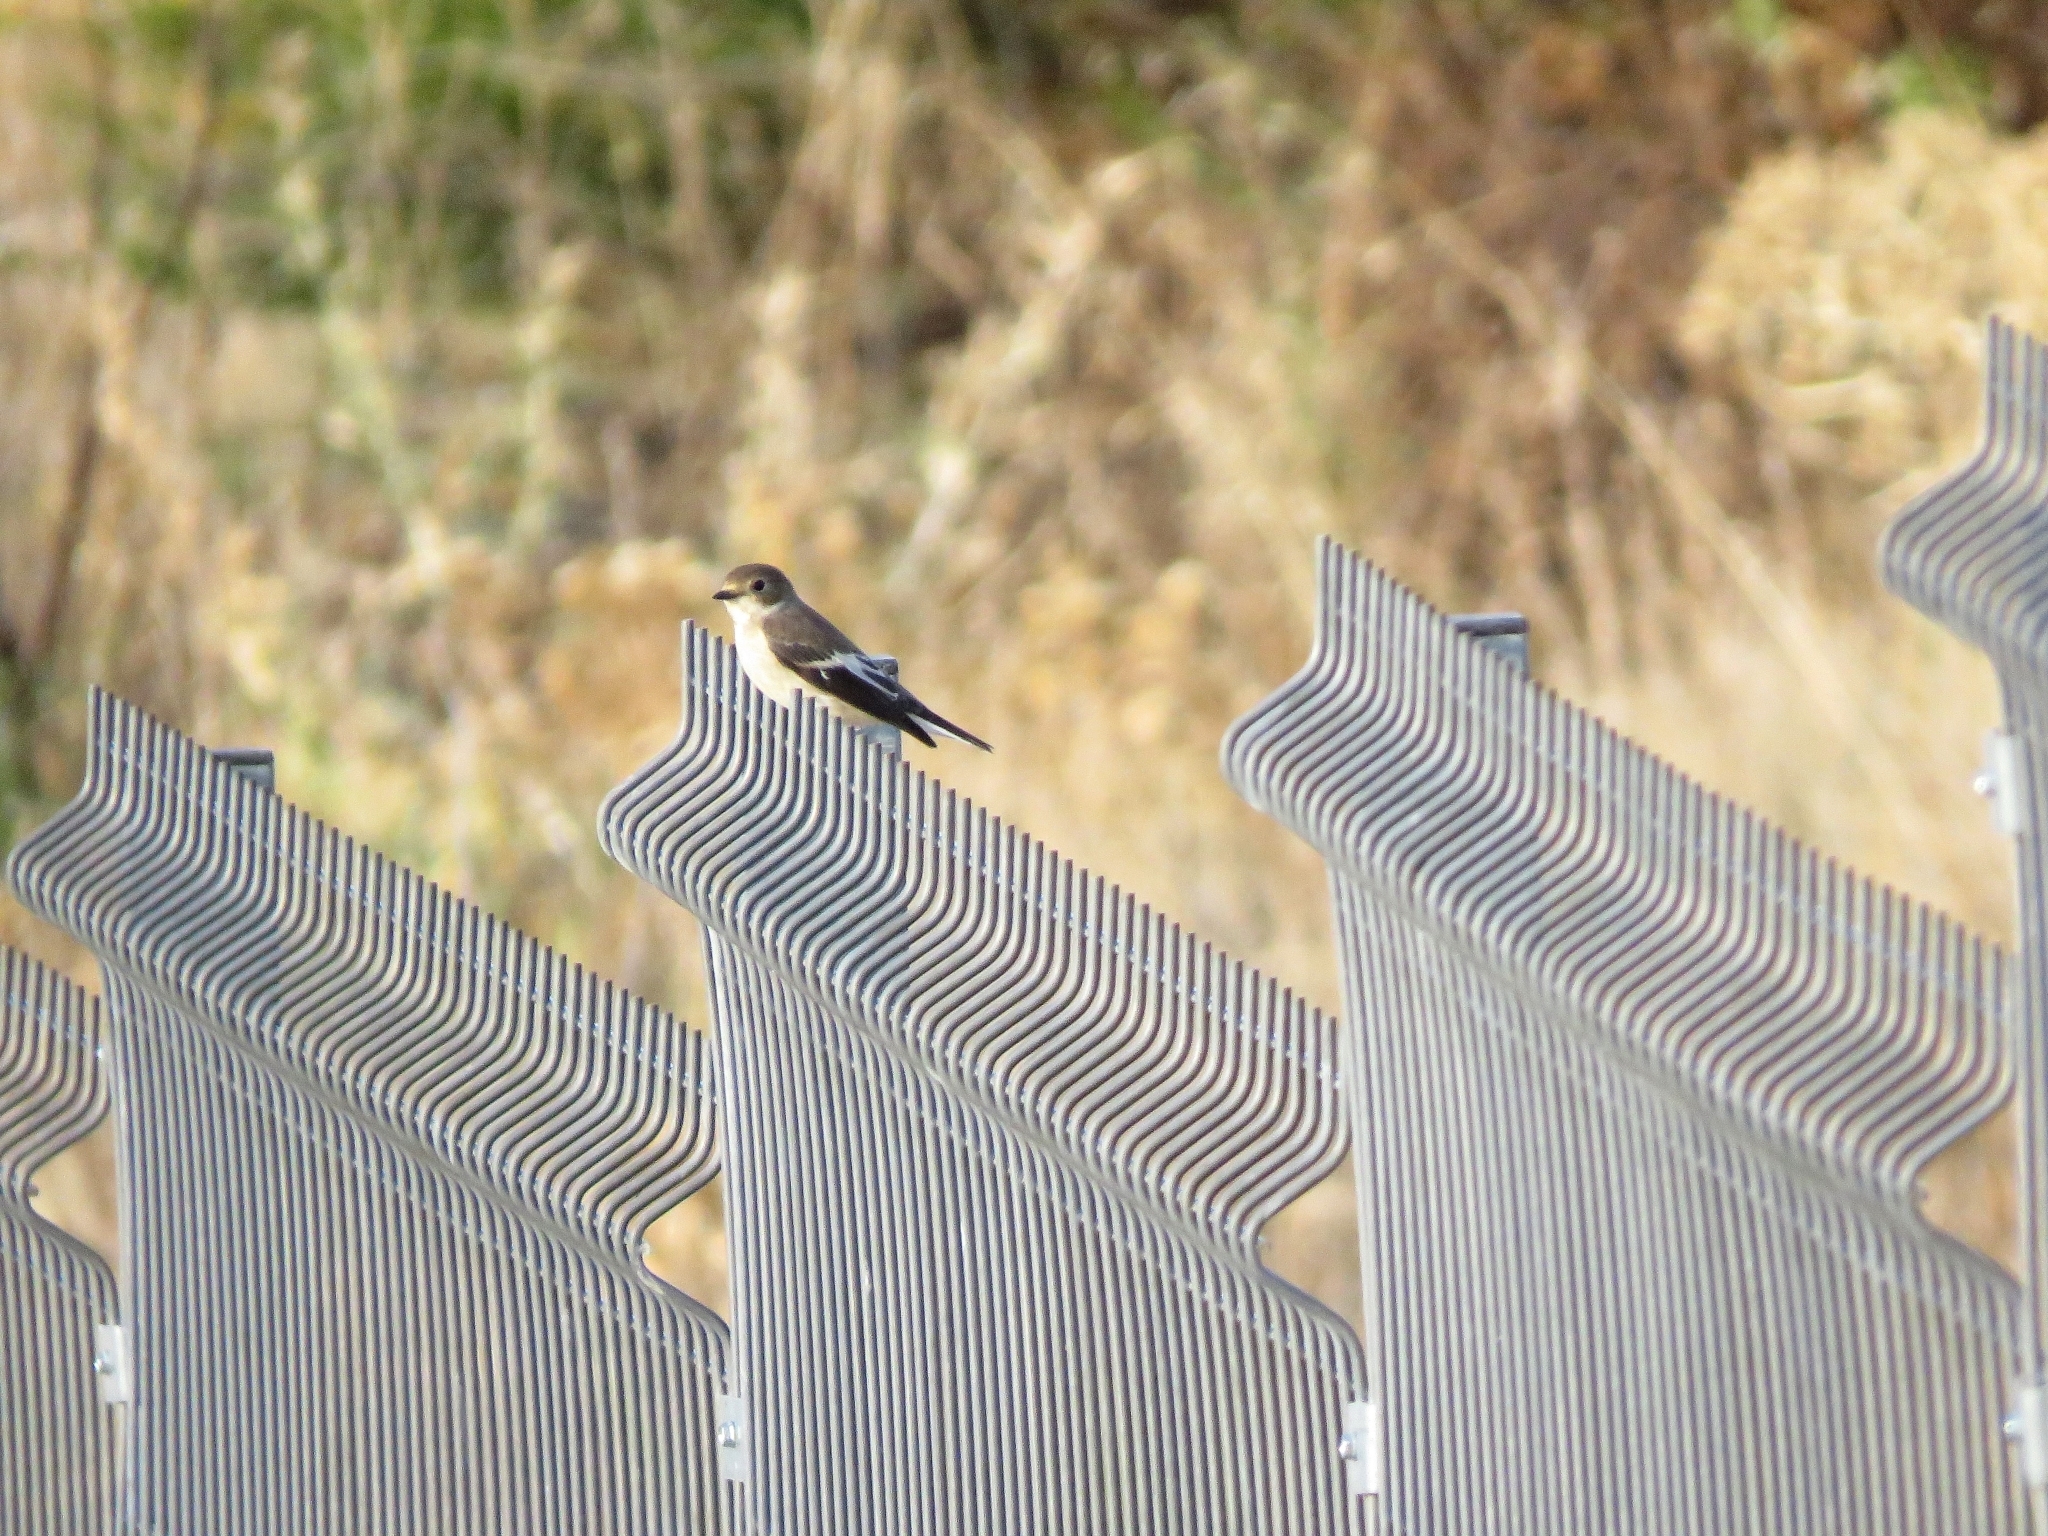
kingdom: Animalia
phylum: Chordata
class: Aves
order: Passeriformes
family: Muscicapidae
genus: Ficedula
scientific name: Ficedula hypoleuca
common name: European pied flycatcher
